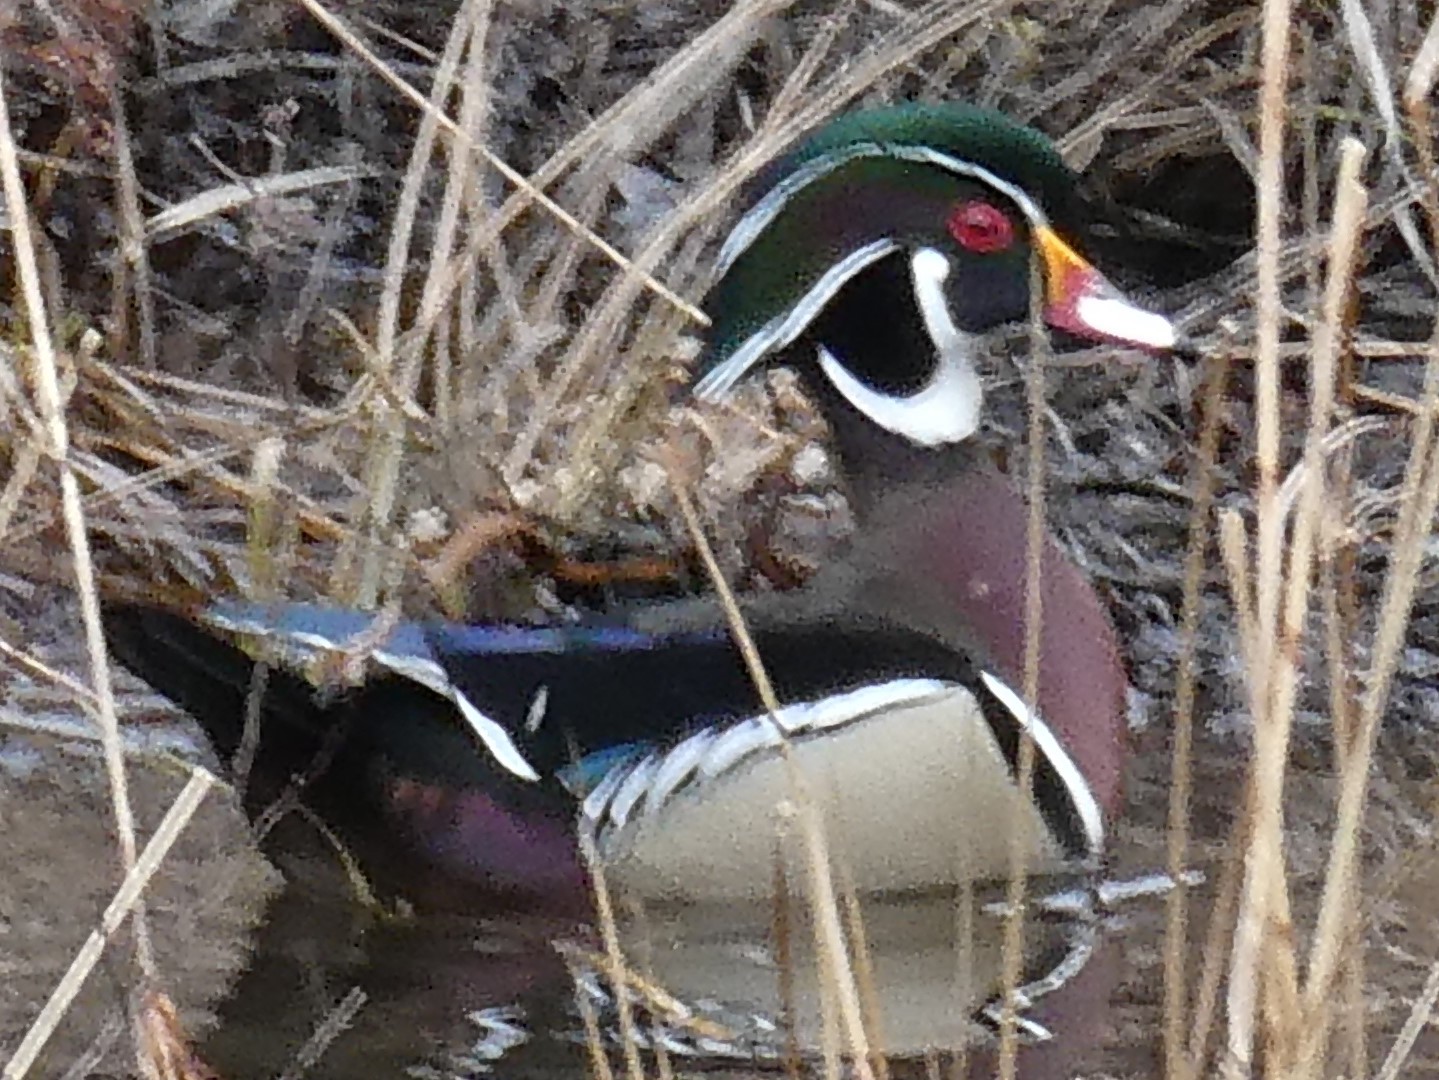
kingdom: Animalia
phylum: Chordata
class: Aves
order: Anseriformes
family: Anatidae
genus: Aix
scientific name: Aix sponsa
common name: Wood duck
